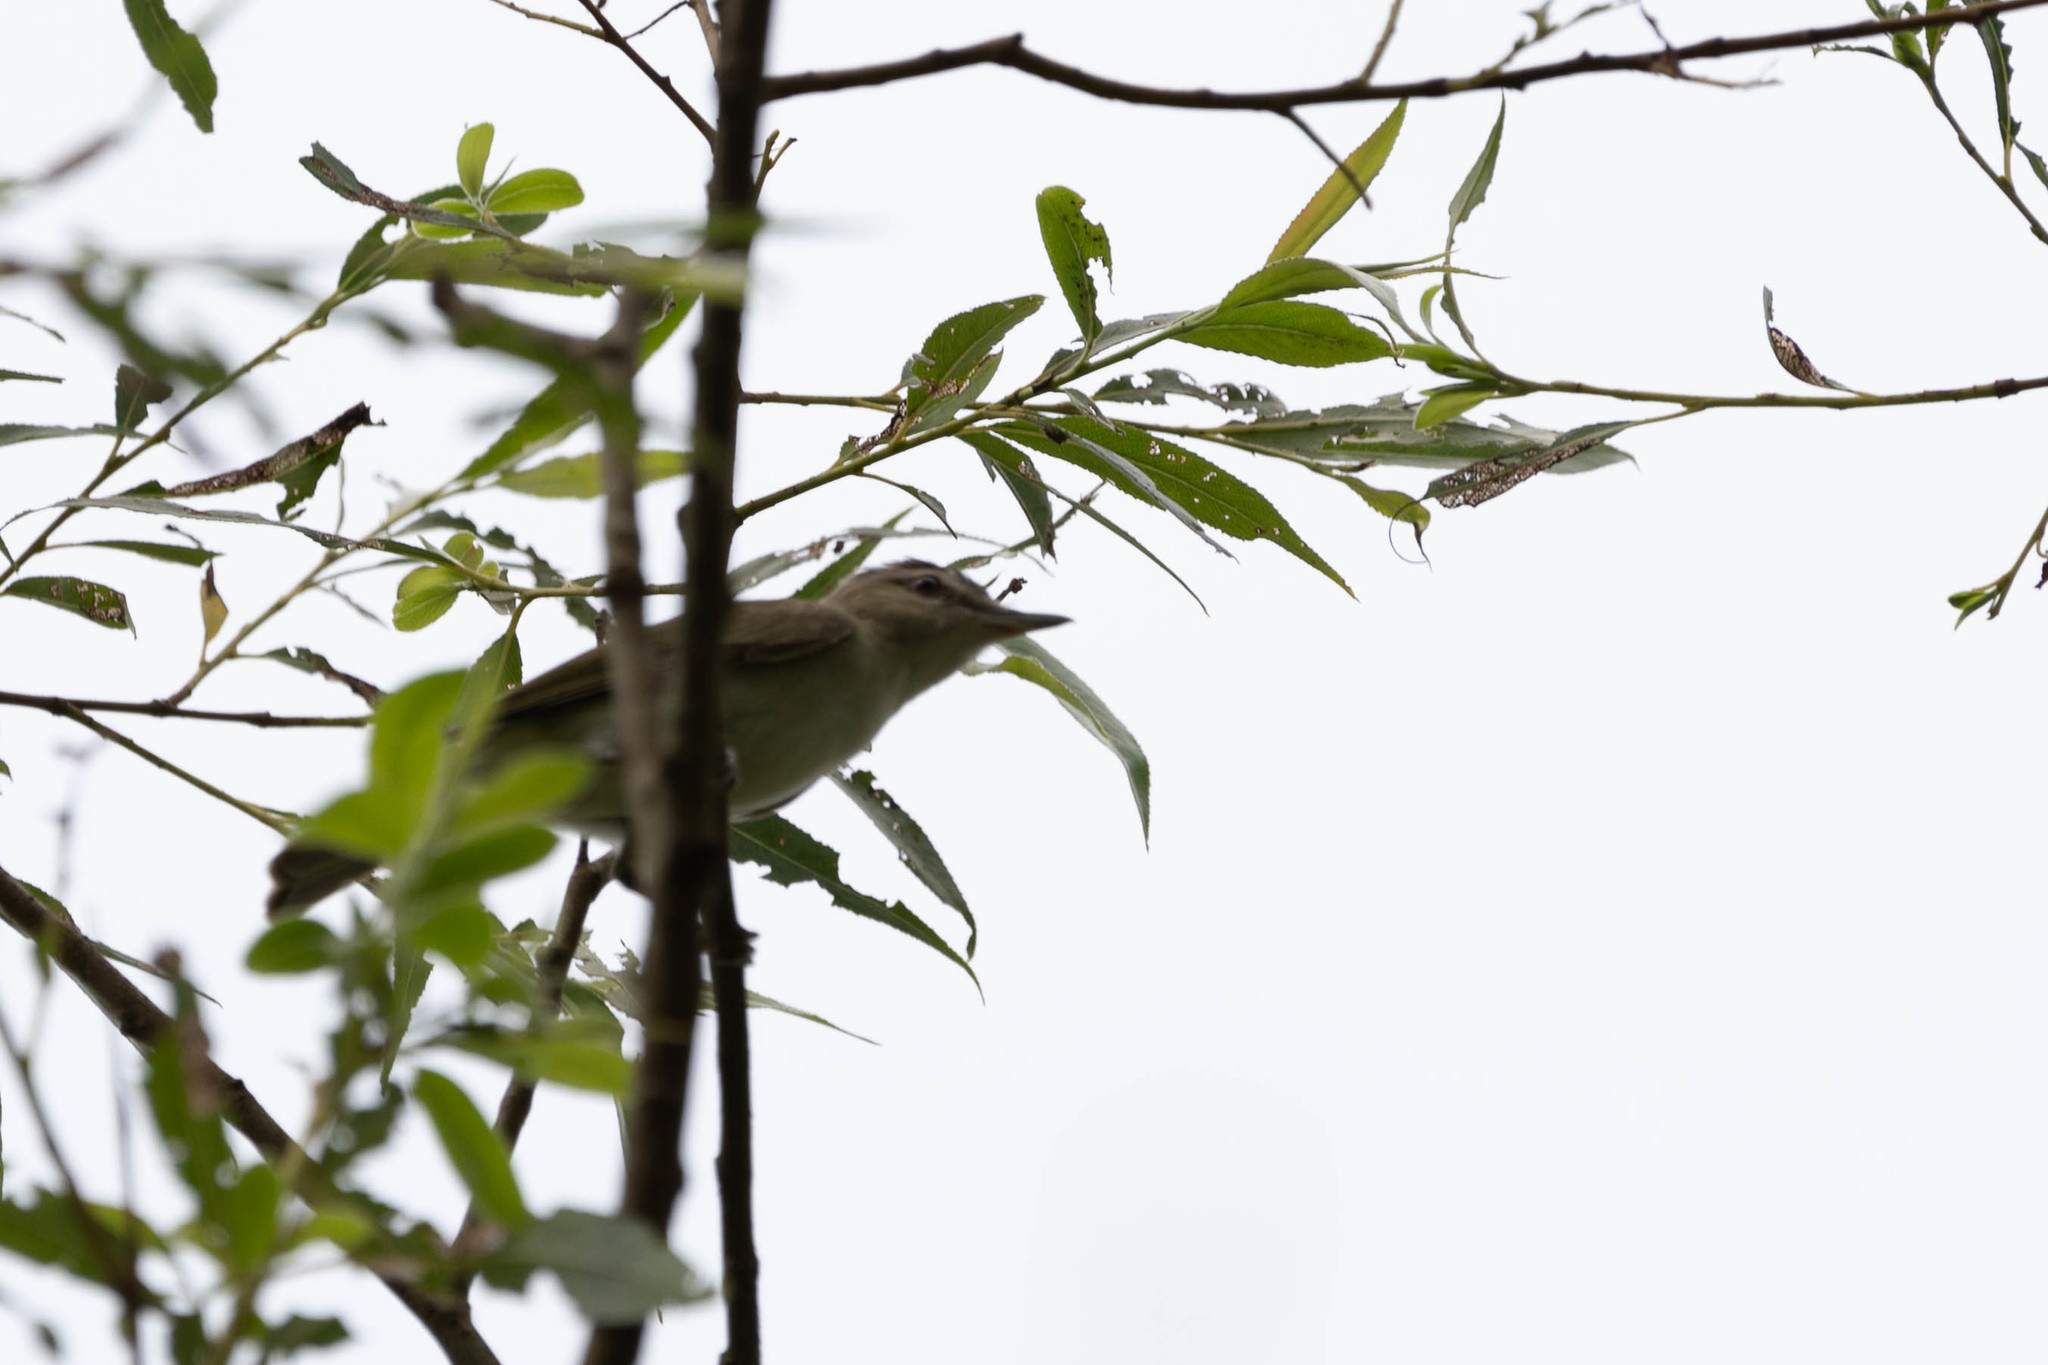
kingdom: Animalia
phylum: Chordata
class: Aves
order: Passeriformes
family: Vireonidae
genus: Vireo
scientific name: Vireo gilvus
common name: Warbling vireo
